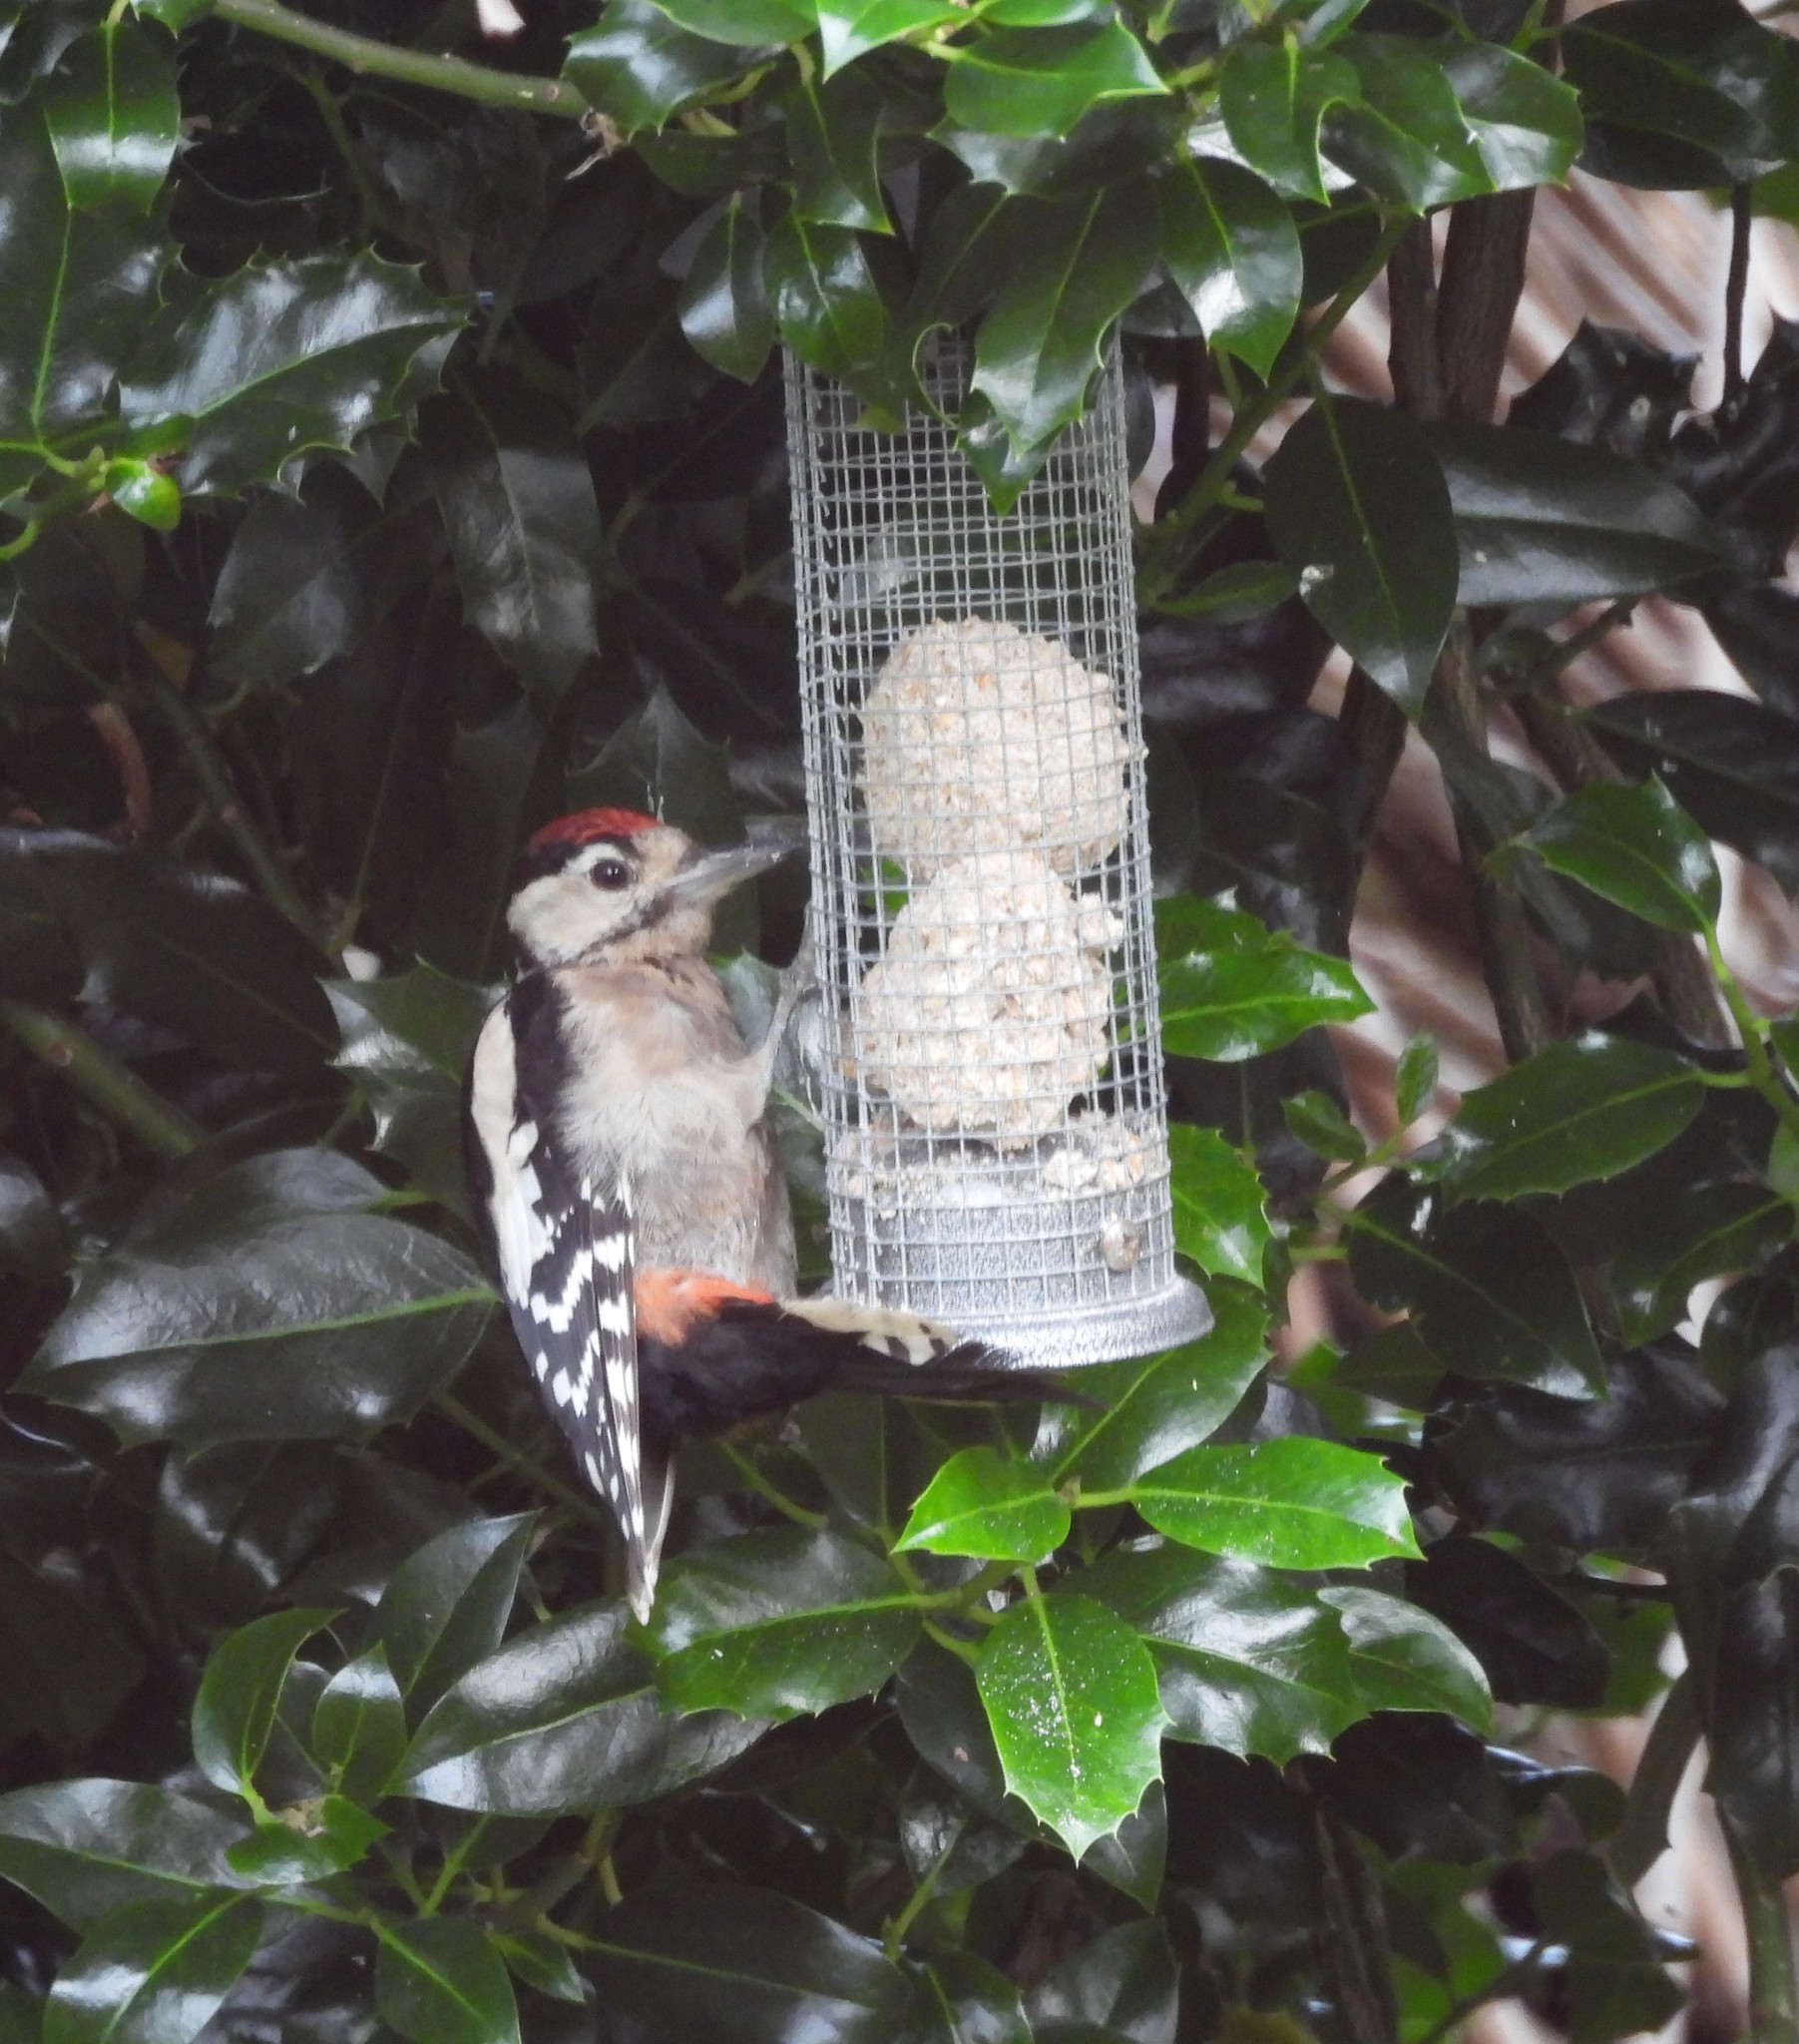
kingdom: Animalia
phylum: Chordata
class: Aves
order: Piciformes
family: Picidae
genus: Dendrocopos
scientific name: Dendrocopos major
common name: Great spotted woodpecker
